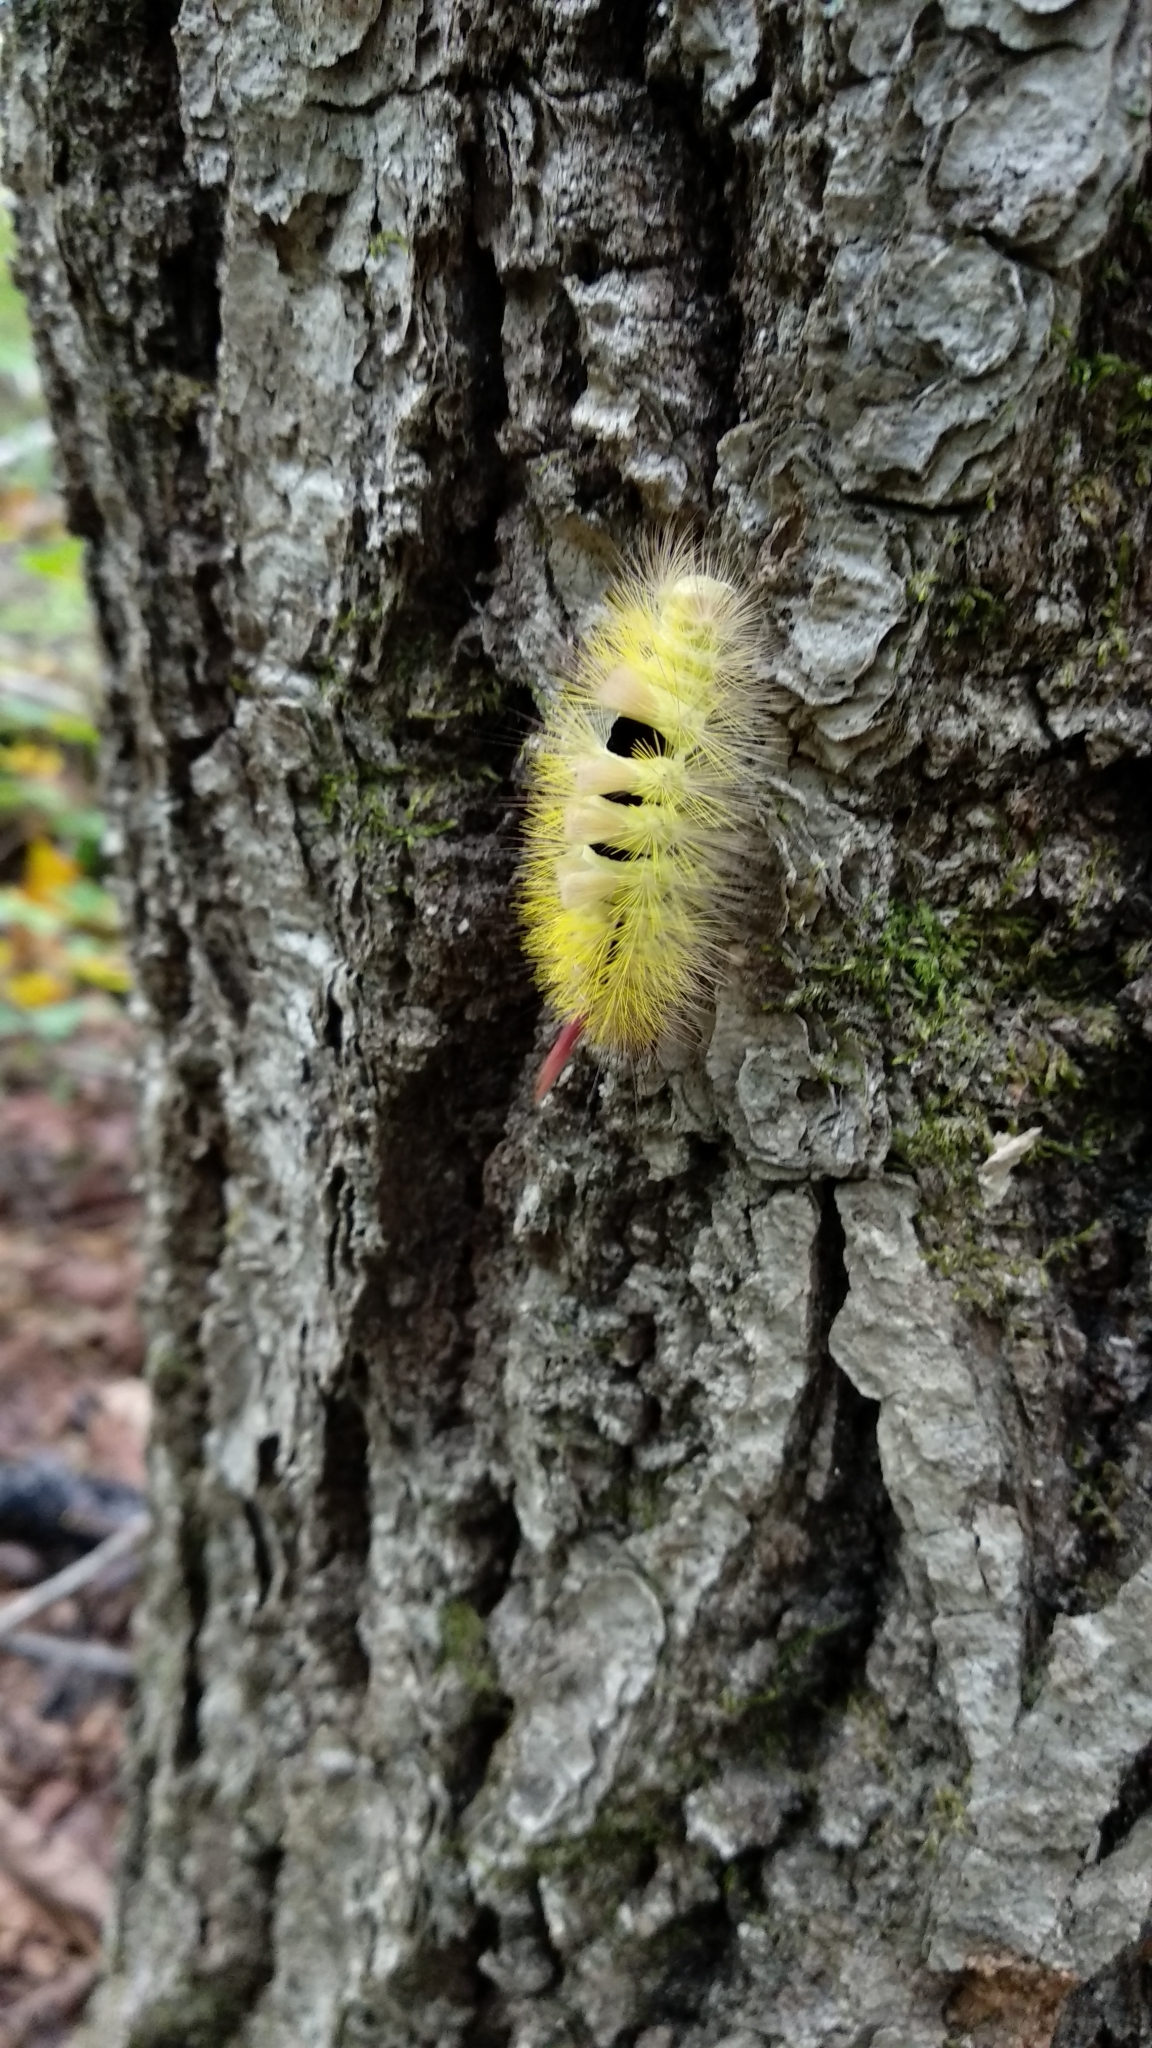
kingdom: Animalia
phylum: Arthropoda
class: Insecta
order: Lepidoptera
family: Erebidae
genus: Calliteara
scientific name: Calliteara pudibunda
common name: Pale tussock
